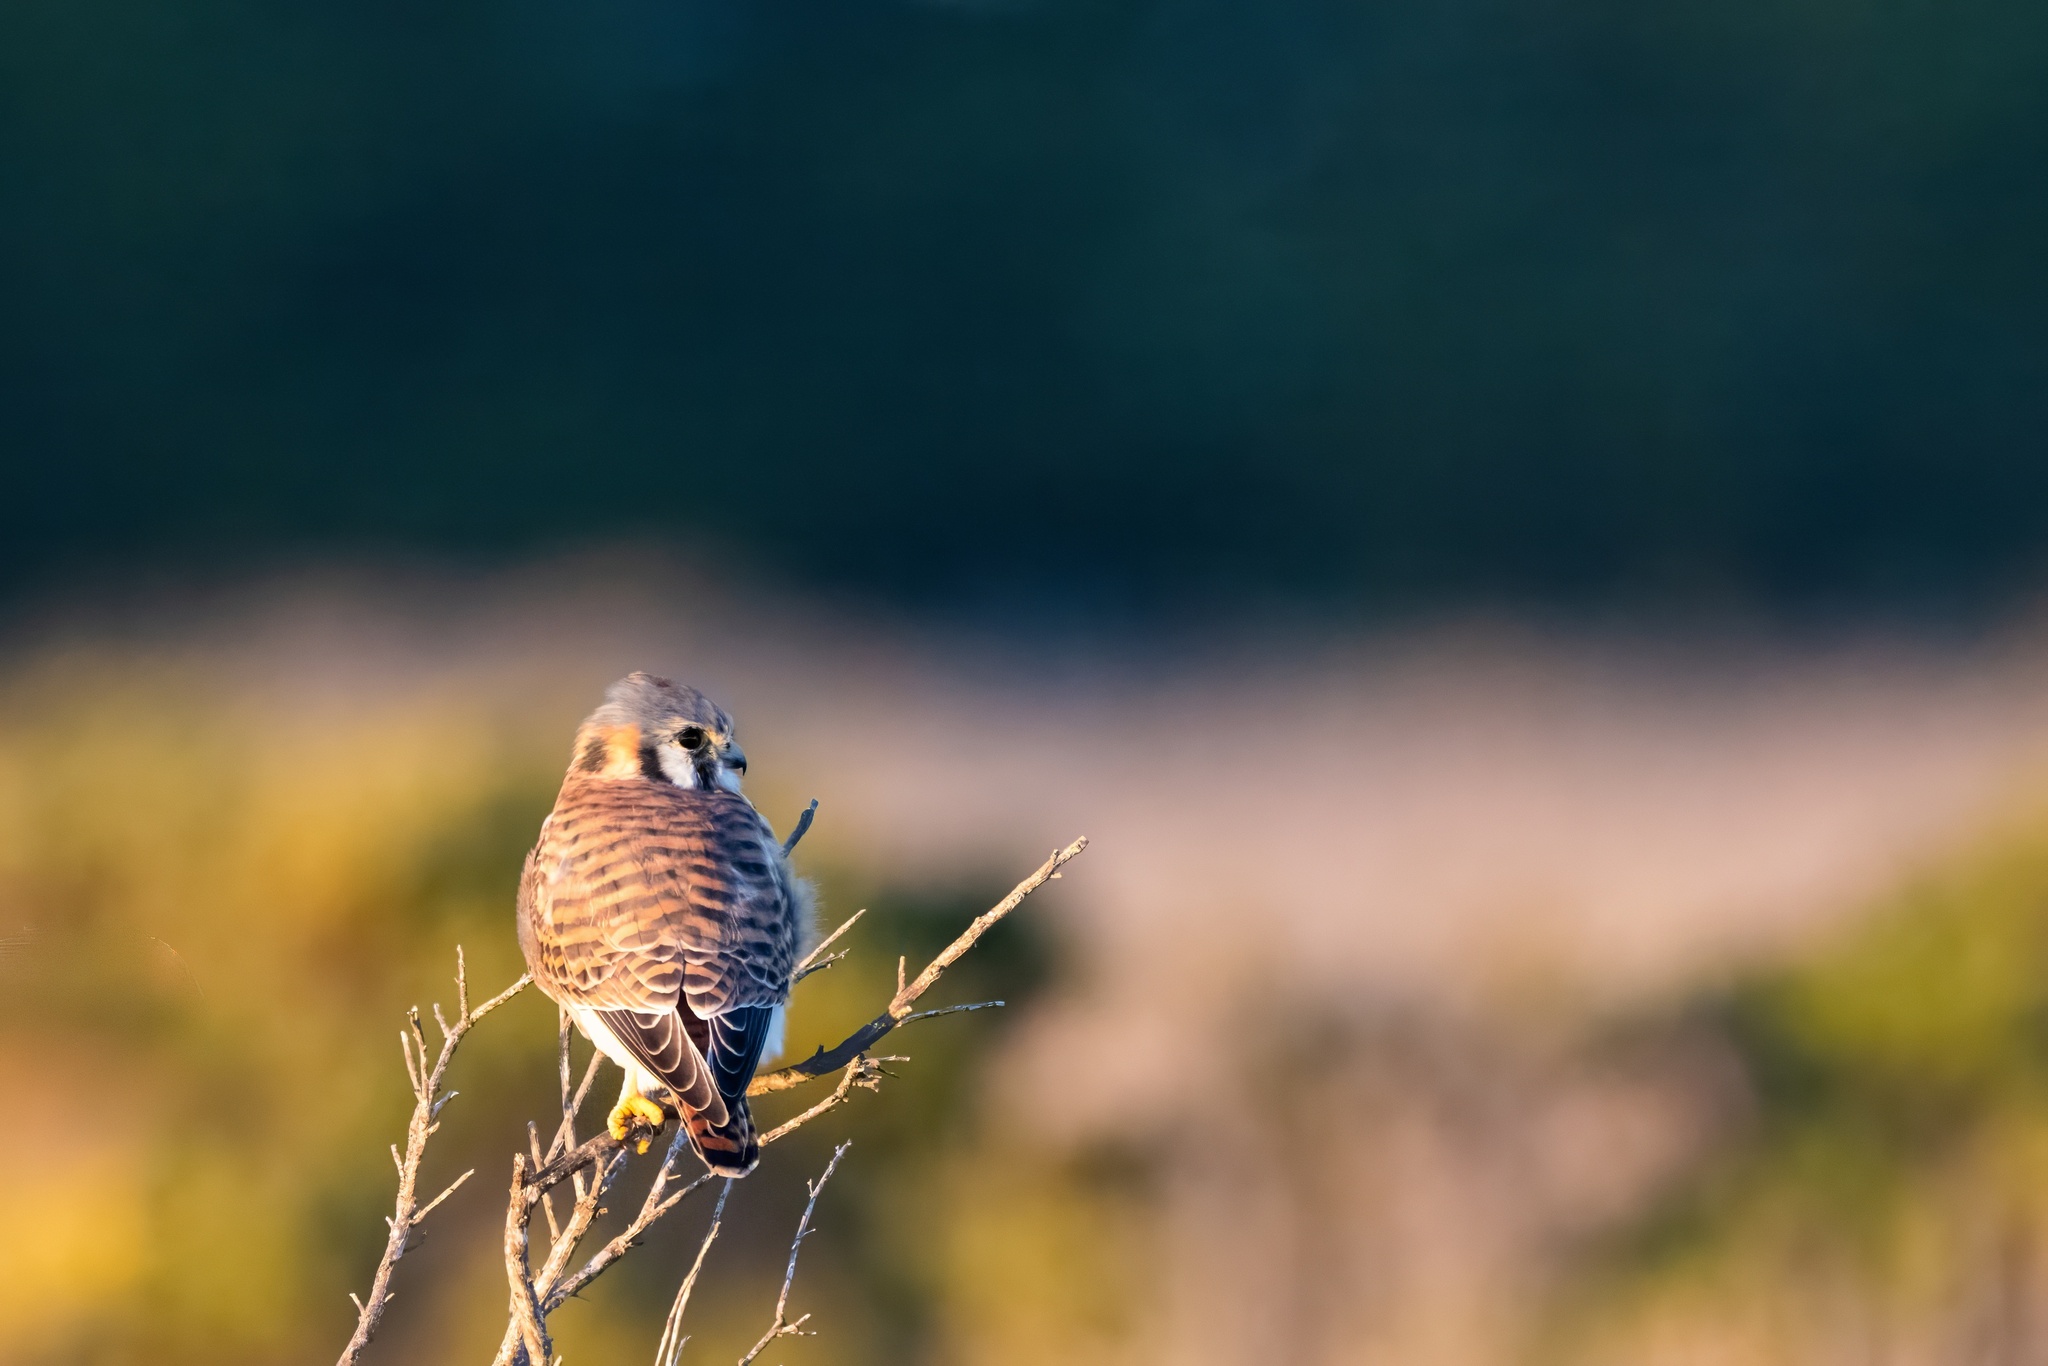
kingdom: Animalia
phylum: Chordata
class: Aves
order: Falconiformes
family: Falconidae
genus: Falco
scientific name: Falco sparverius
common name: American kestrel
